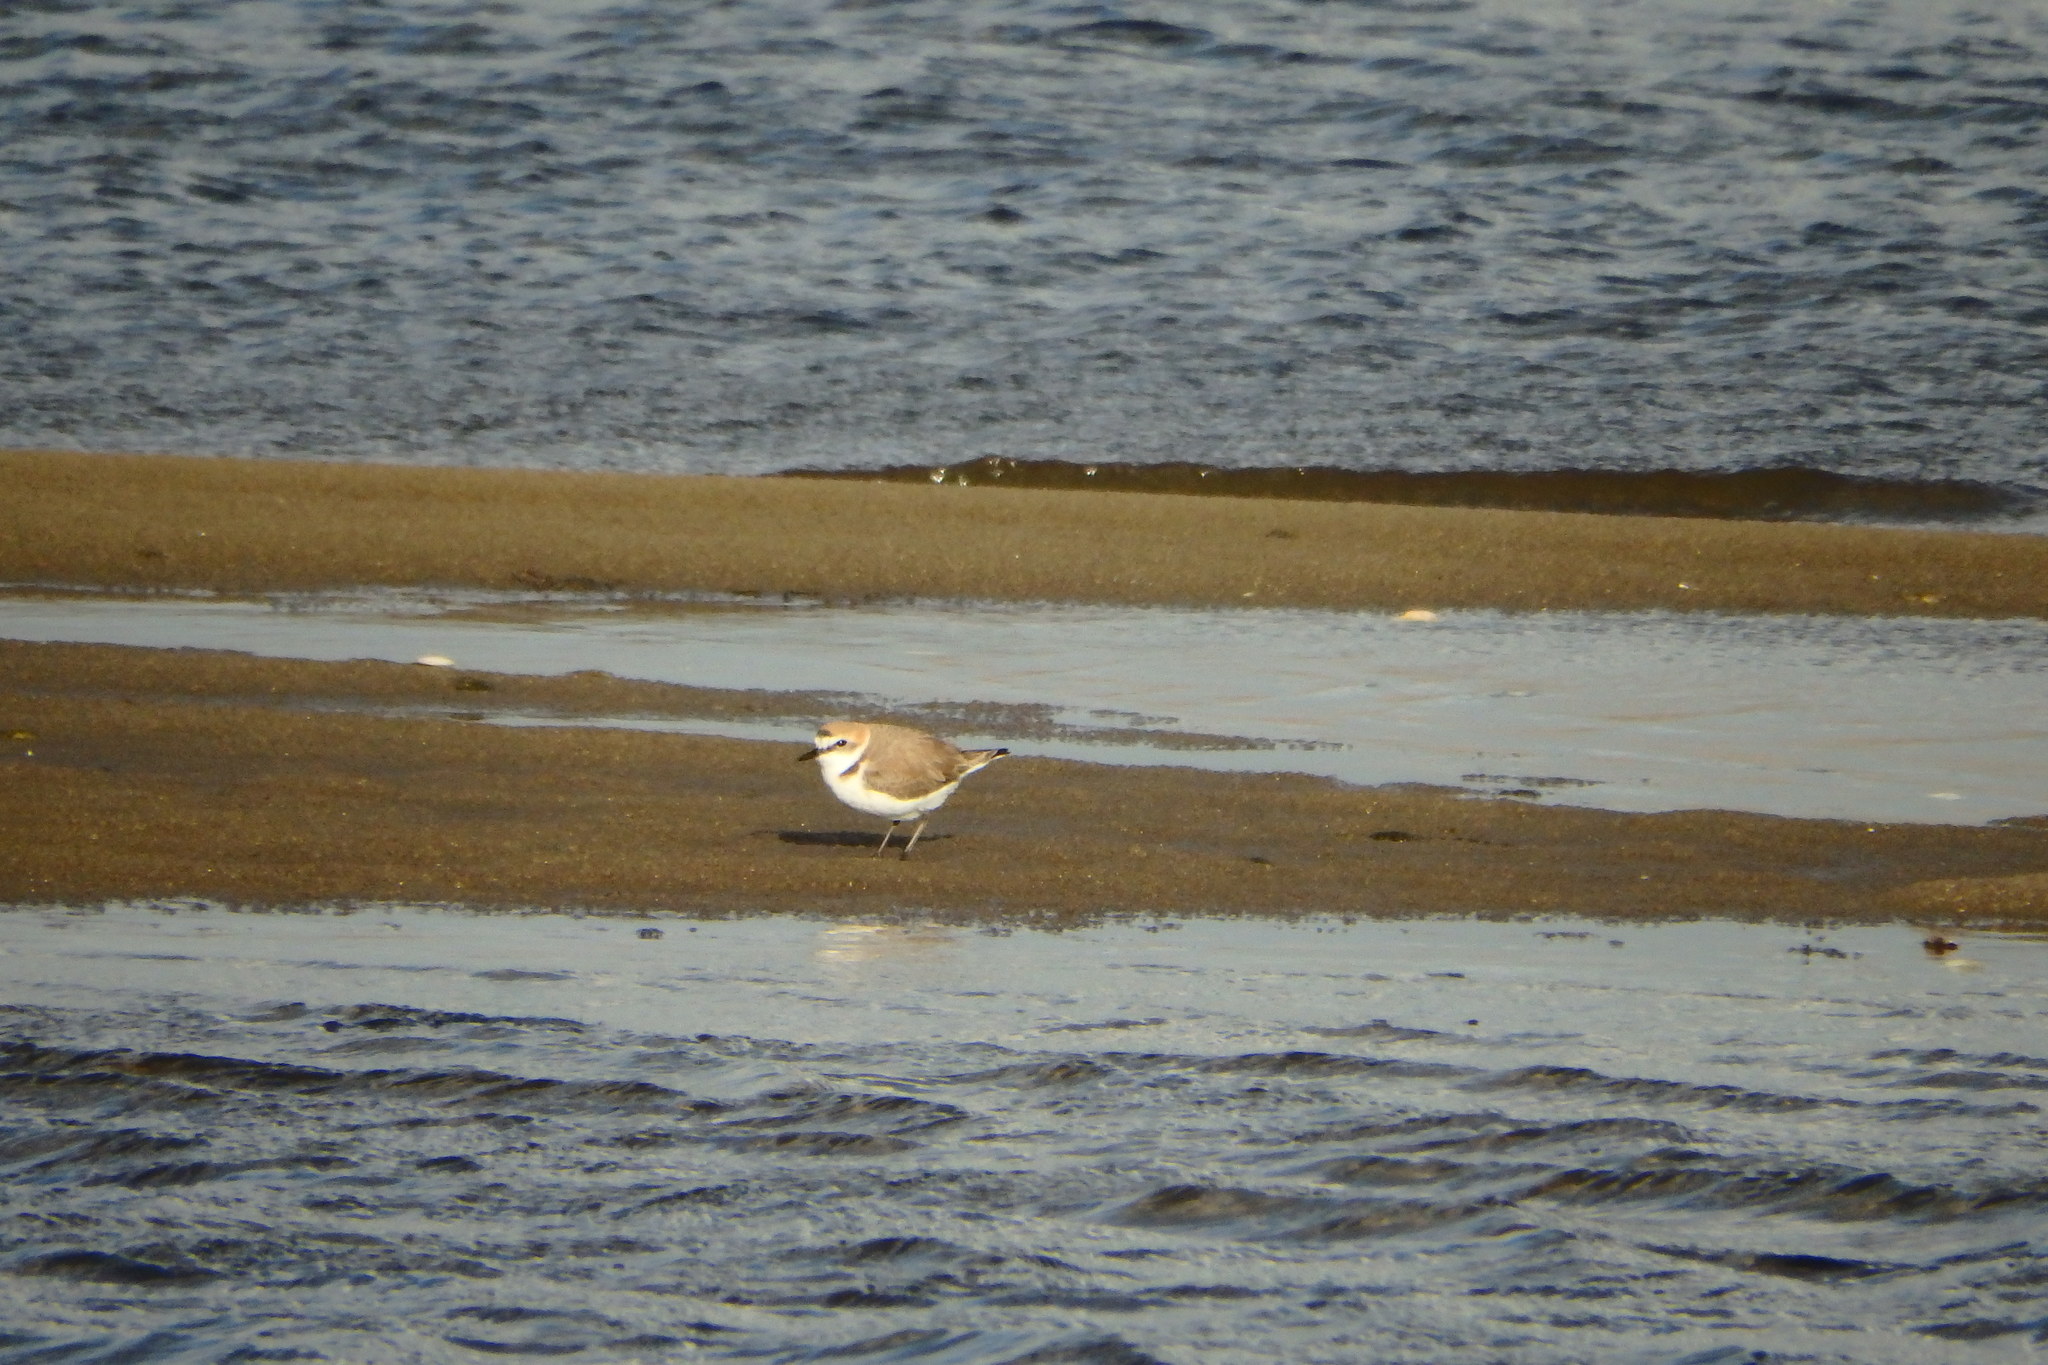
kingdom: Animalia
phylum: Chordata
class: Aves
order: Charadriiformes
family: Charadriidae
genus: Charadrius
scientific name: Charadrius alexandrinus
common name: Kentish plover
